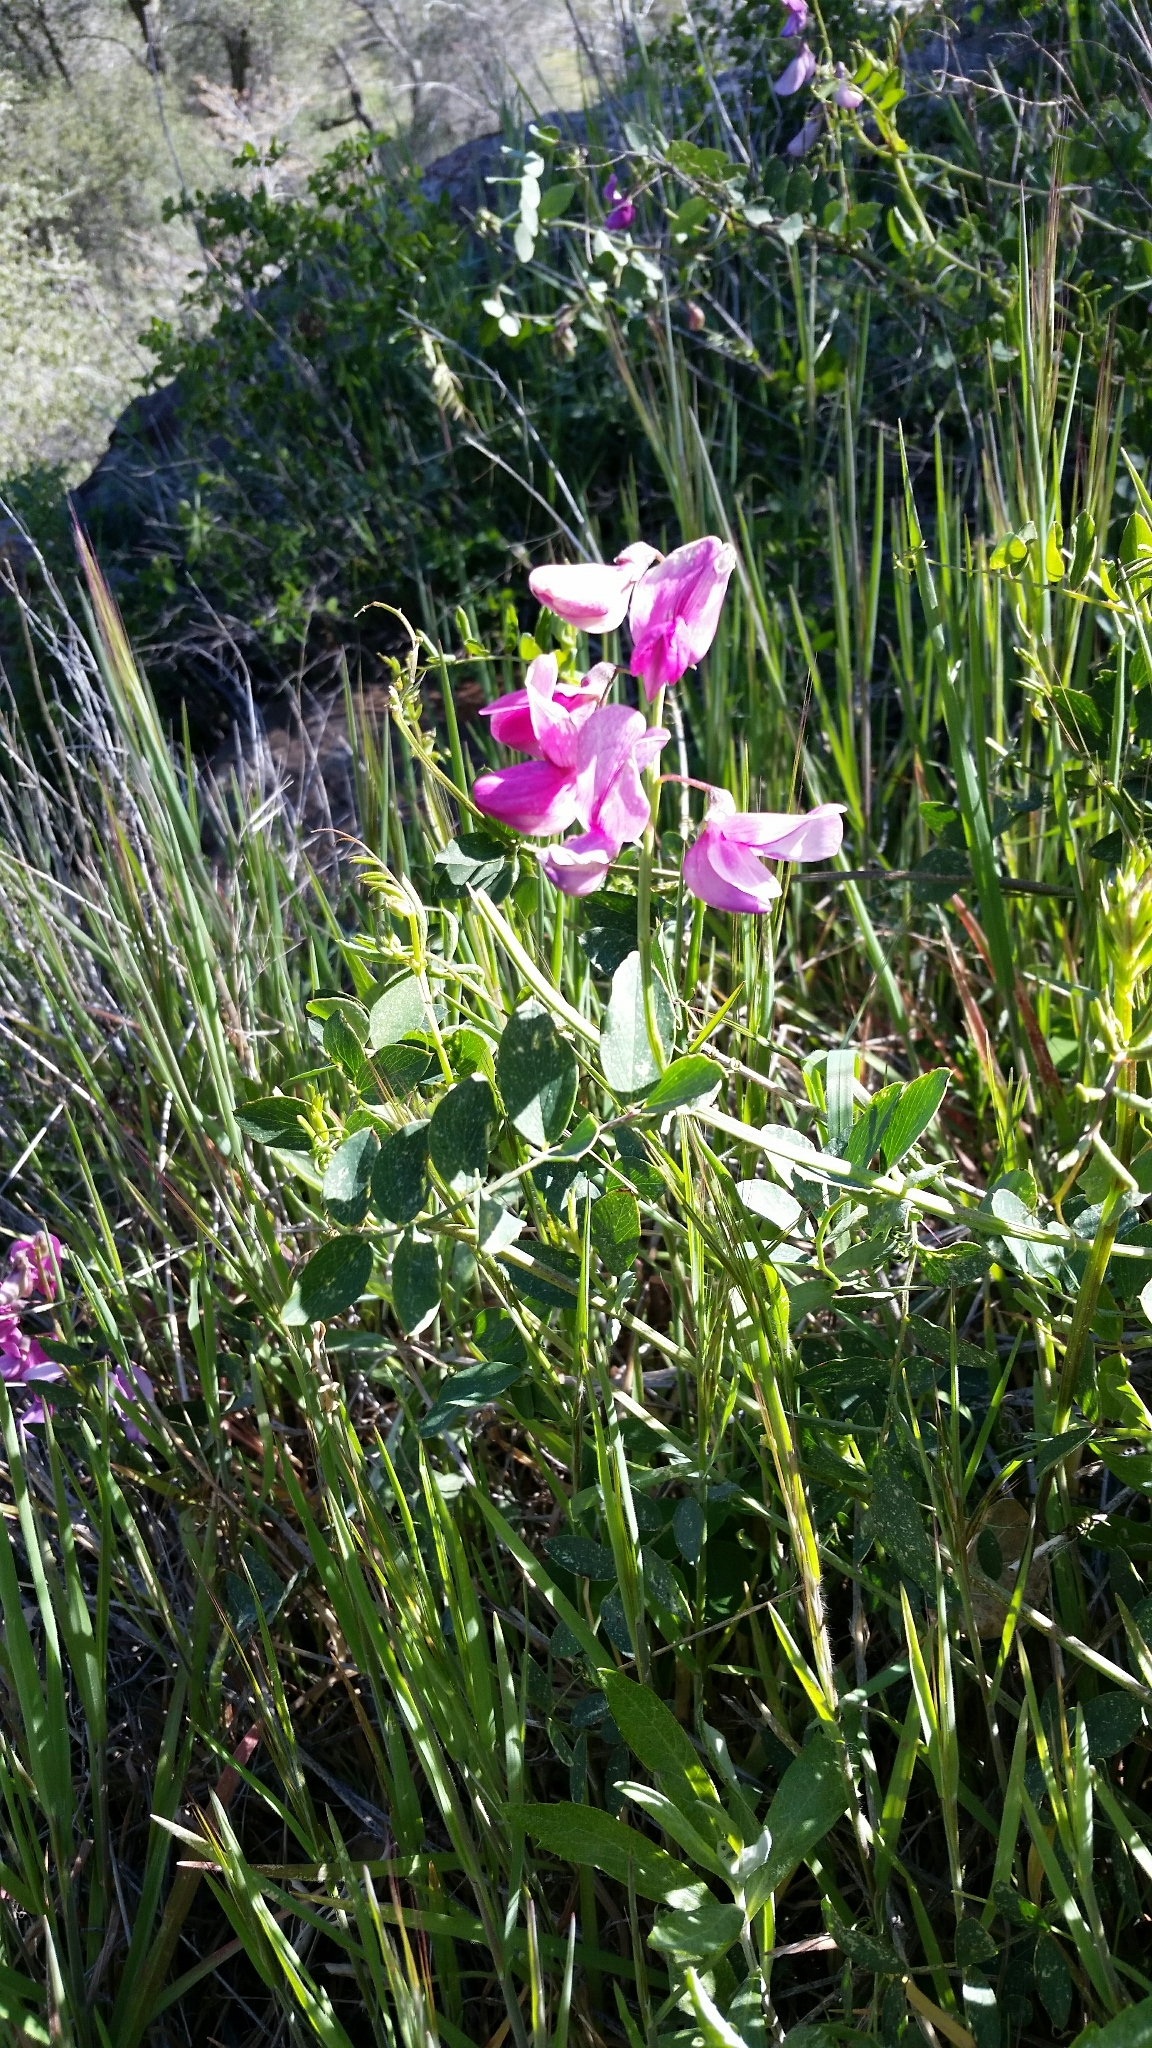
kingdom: Plantae
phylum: Tracheophyta
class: Magnoliopsida
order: Fabales
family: Fabaceae
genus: Lathyrus
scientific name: Lathyrus vestitus
